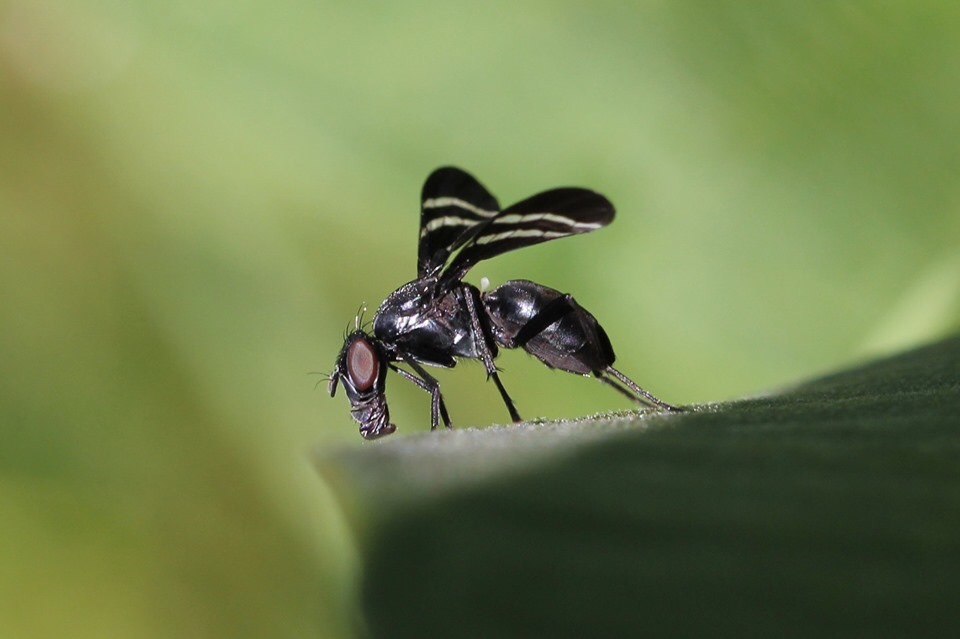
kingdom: Animalia
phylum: Arthropoda
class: Insecta
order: Diptera
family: Ulidiidae
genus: Tritoxa
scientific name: Tritoxa flexa
